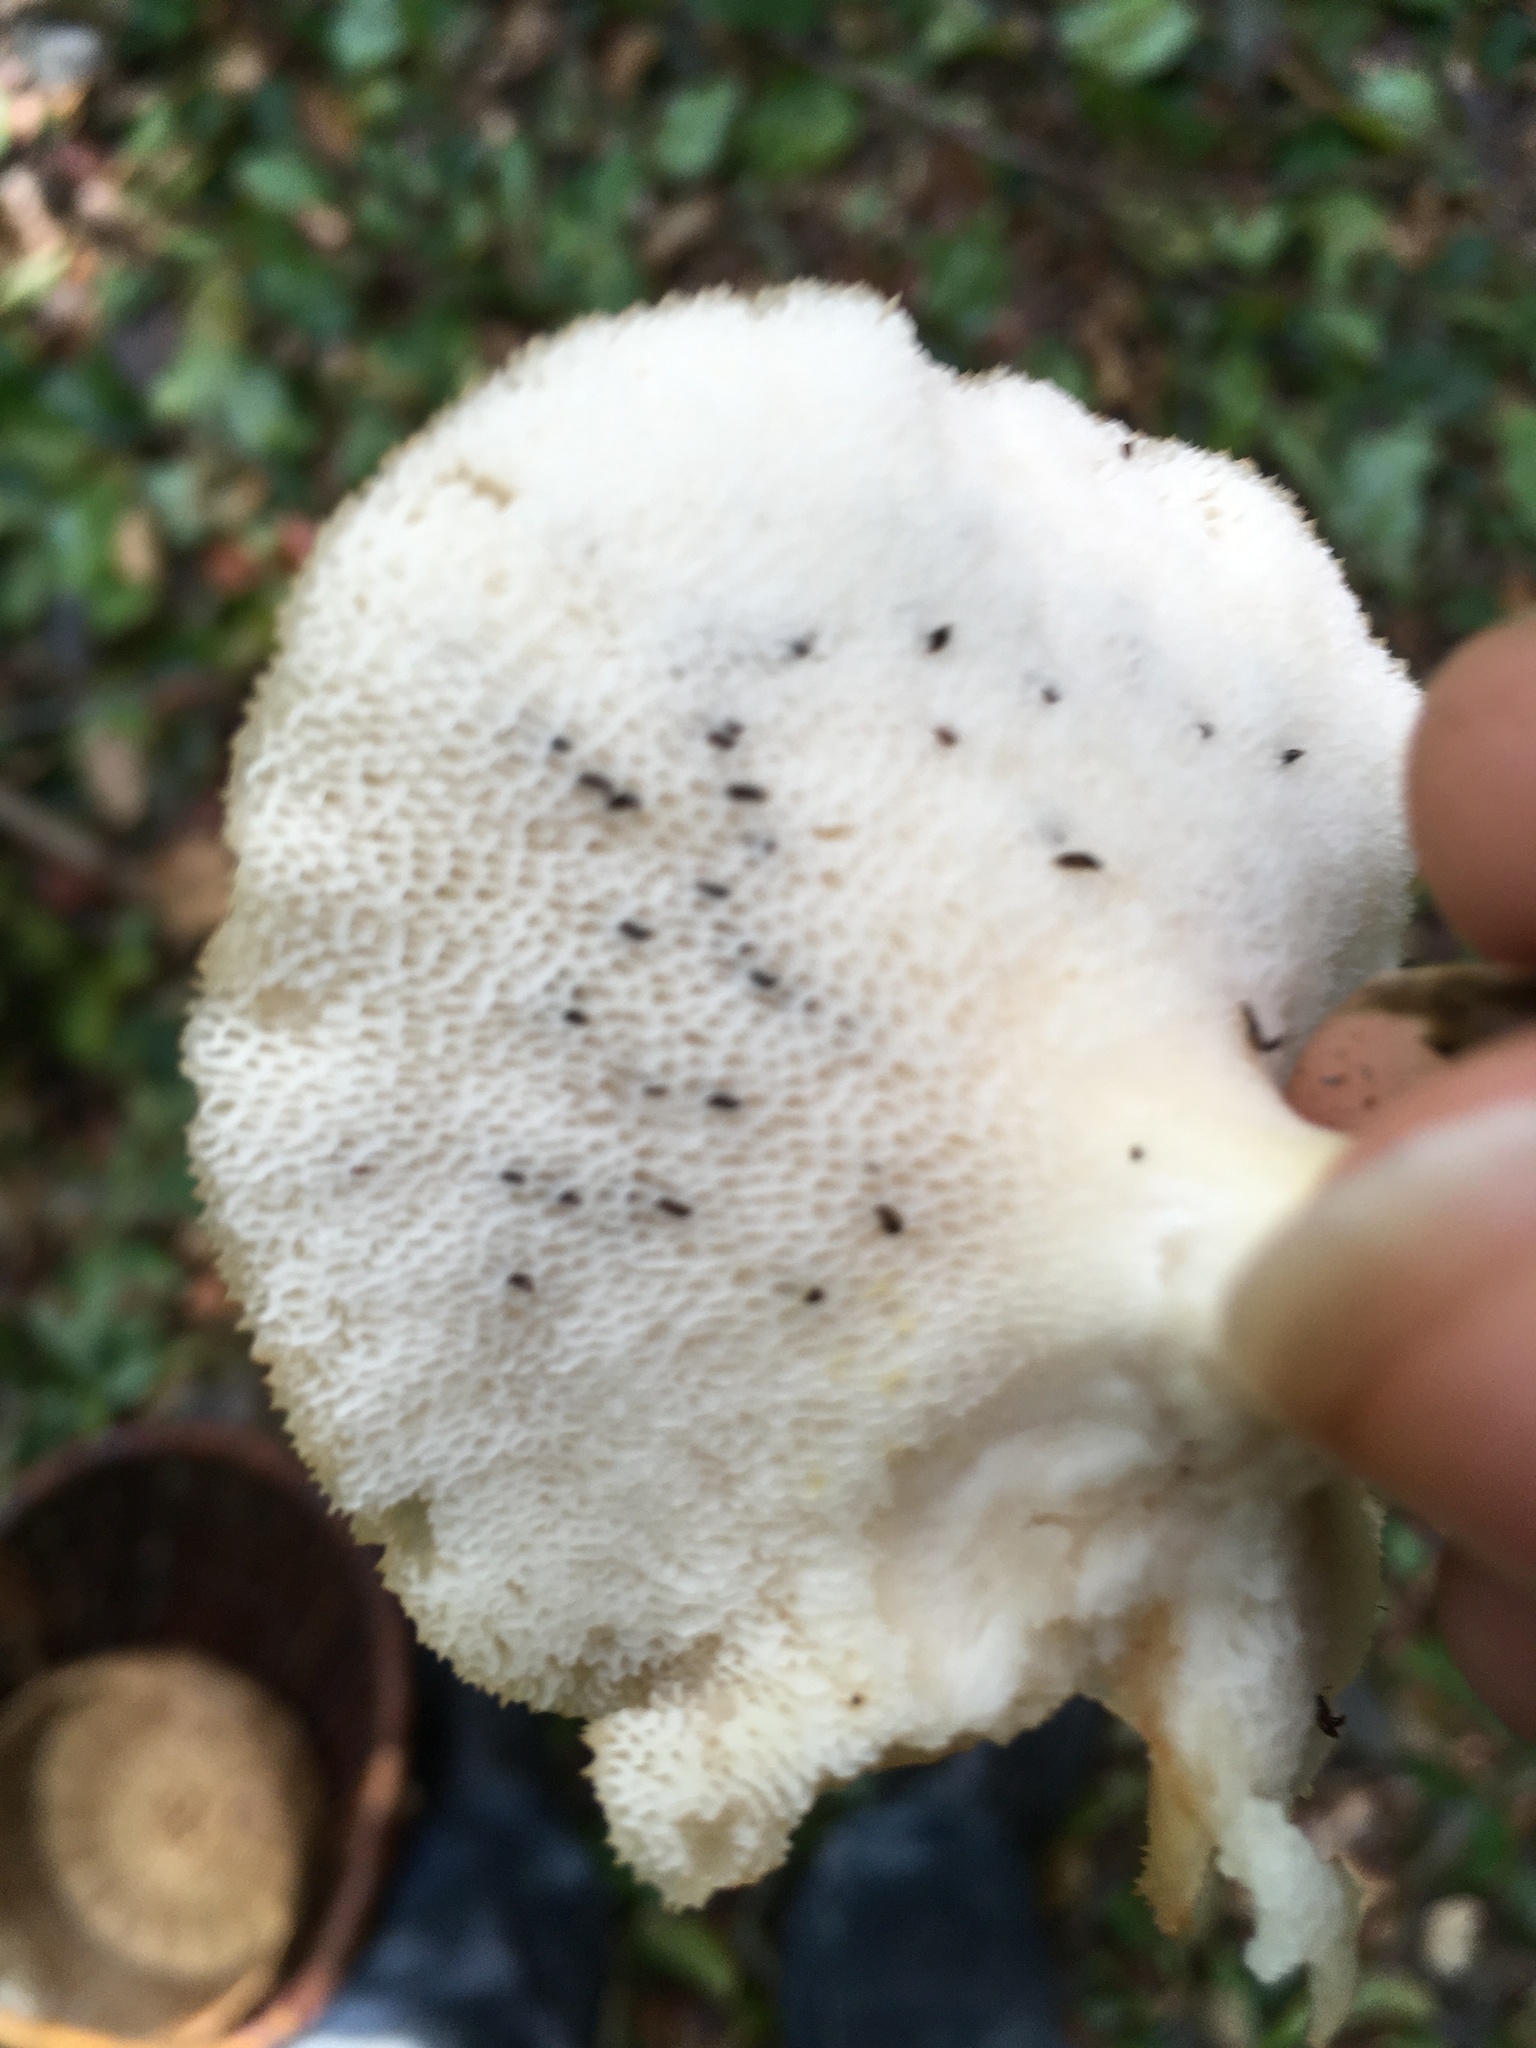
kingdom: Fungi
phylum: Basidiomycota
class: Agaricomycetes
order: Polyporales
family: Polyporaceae
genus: Polyporus
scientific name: Polyporus tuberaster
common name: Tuberous polypore
